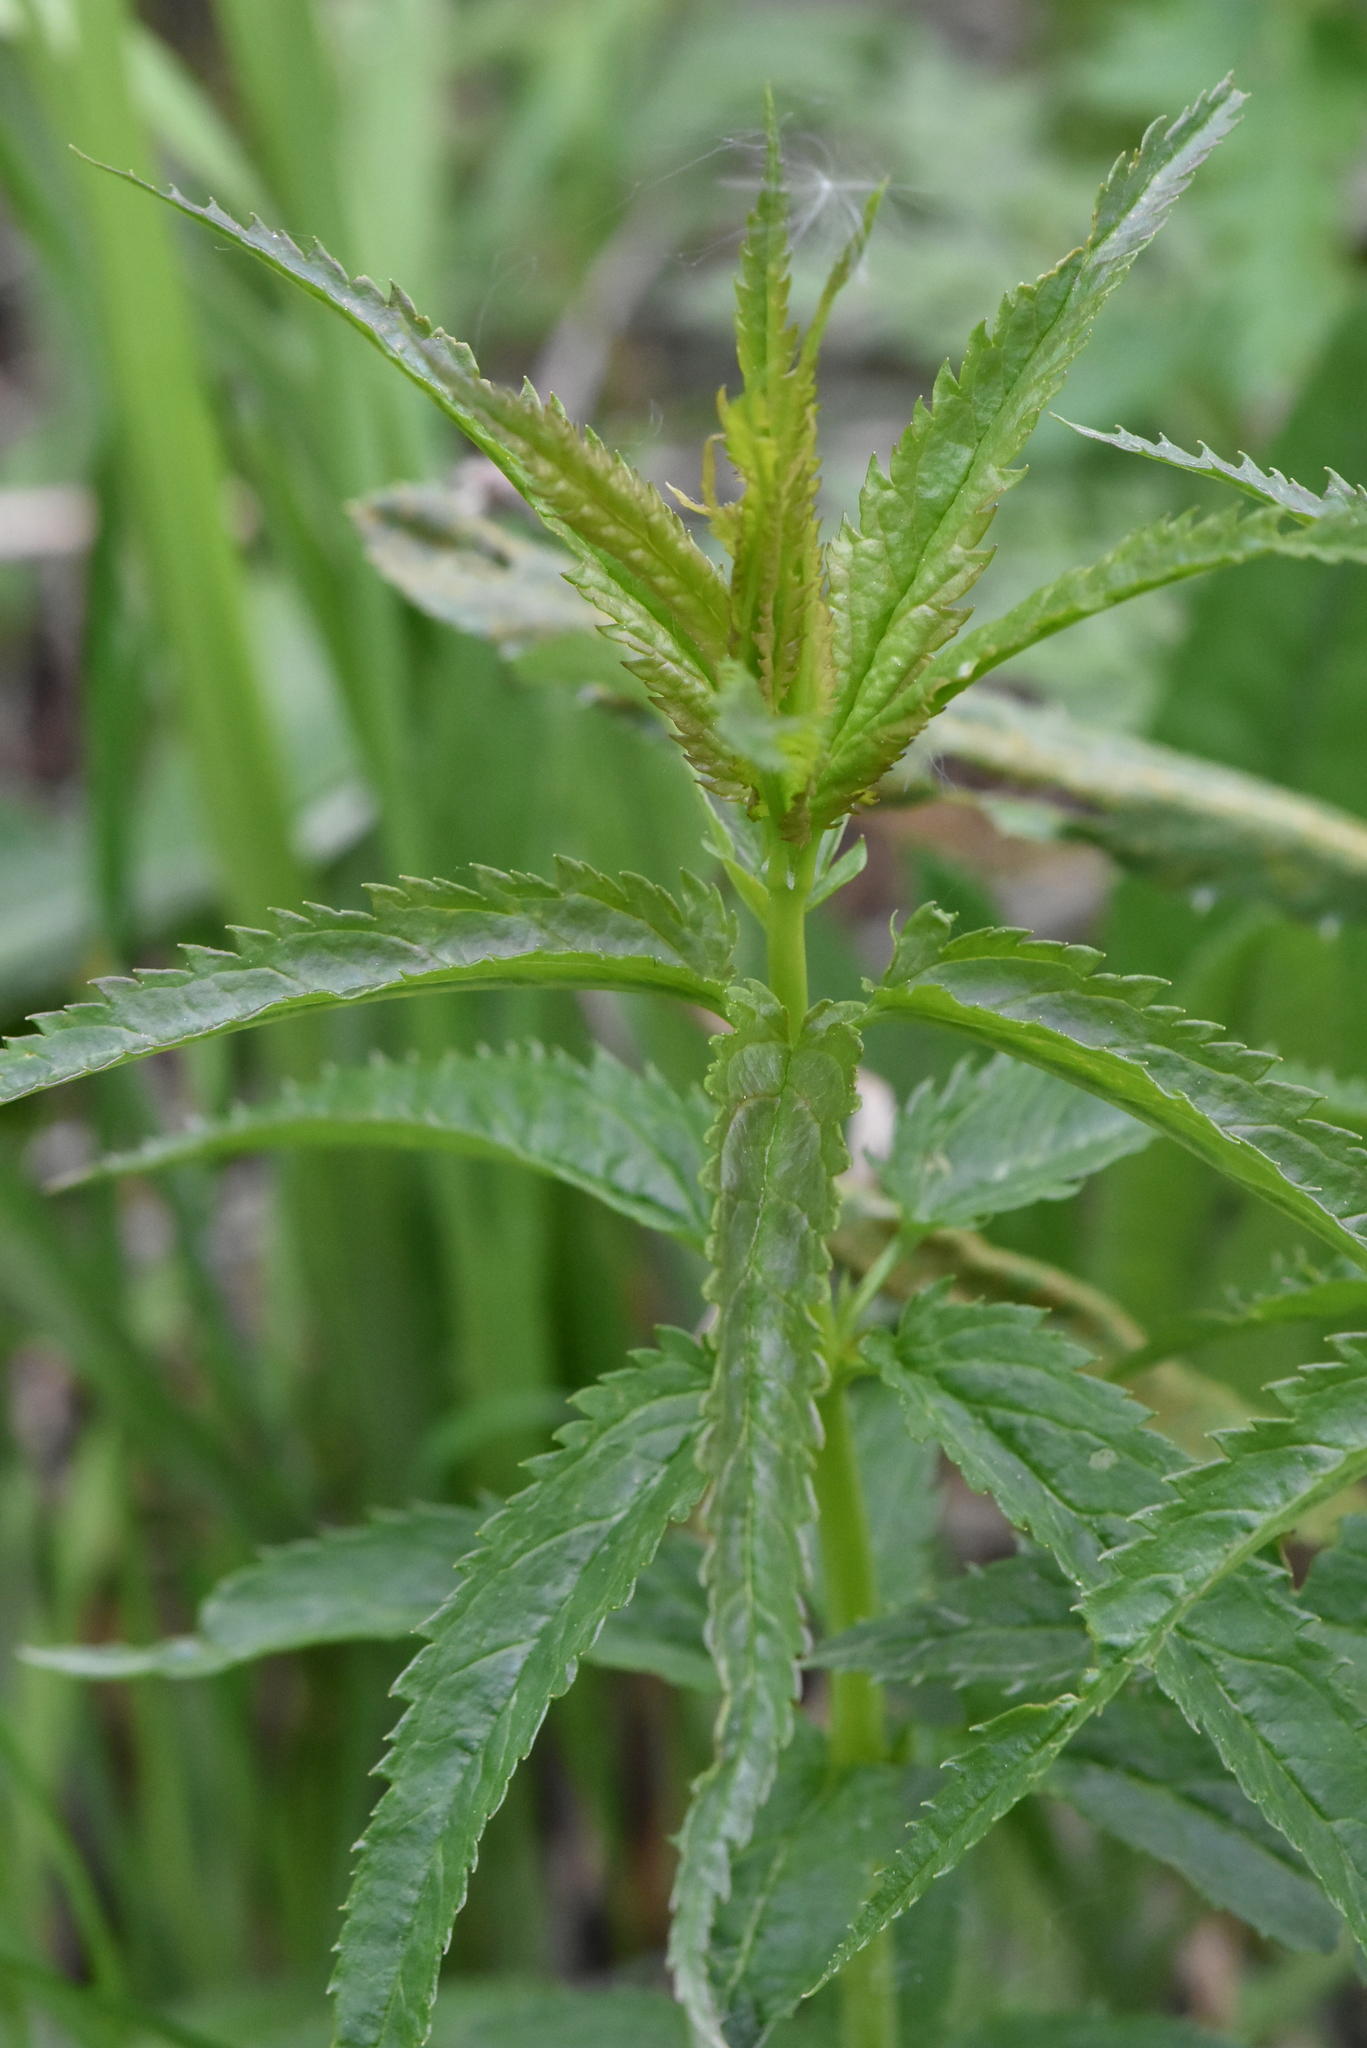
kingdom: Plantae
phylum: Tracheophyta
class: Magnoliopsida
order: Lamiales
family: Plantaginaceae
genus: Veronica
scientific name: Veronica longifolia
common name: Garden speedwell
